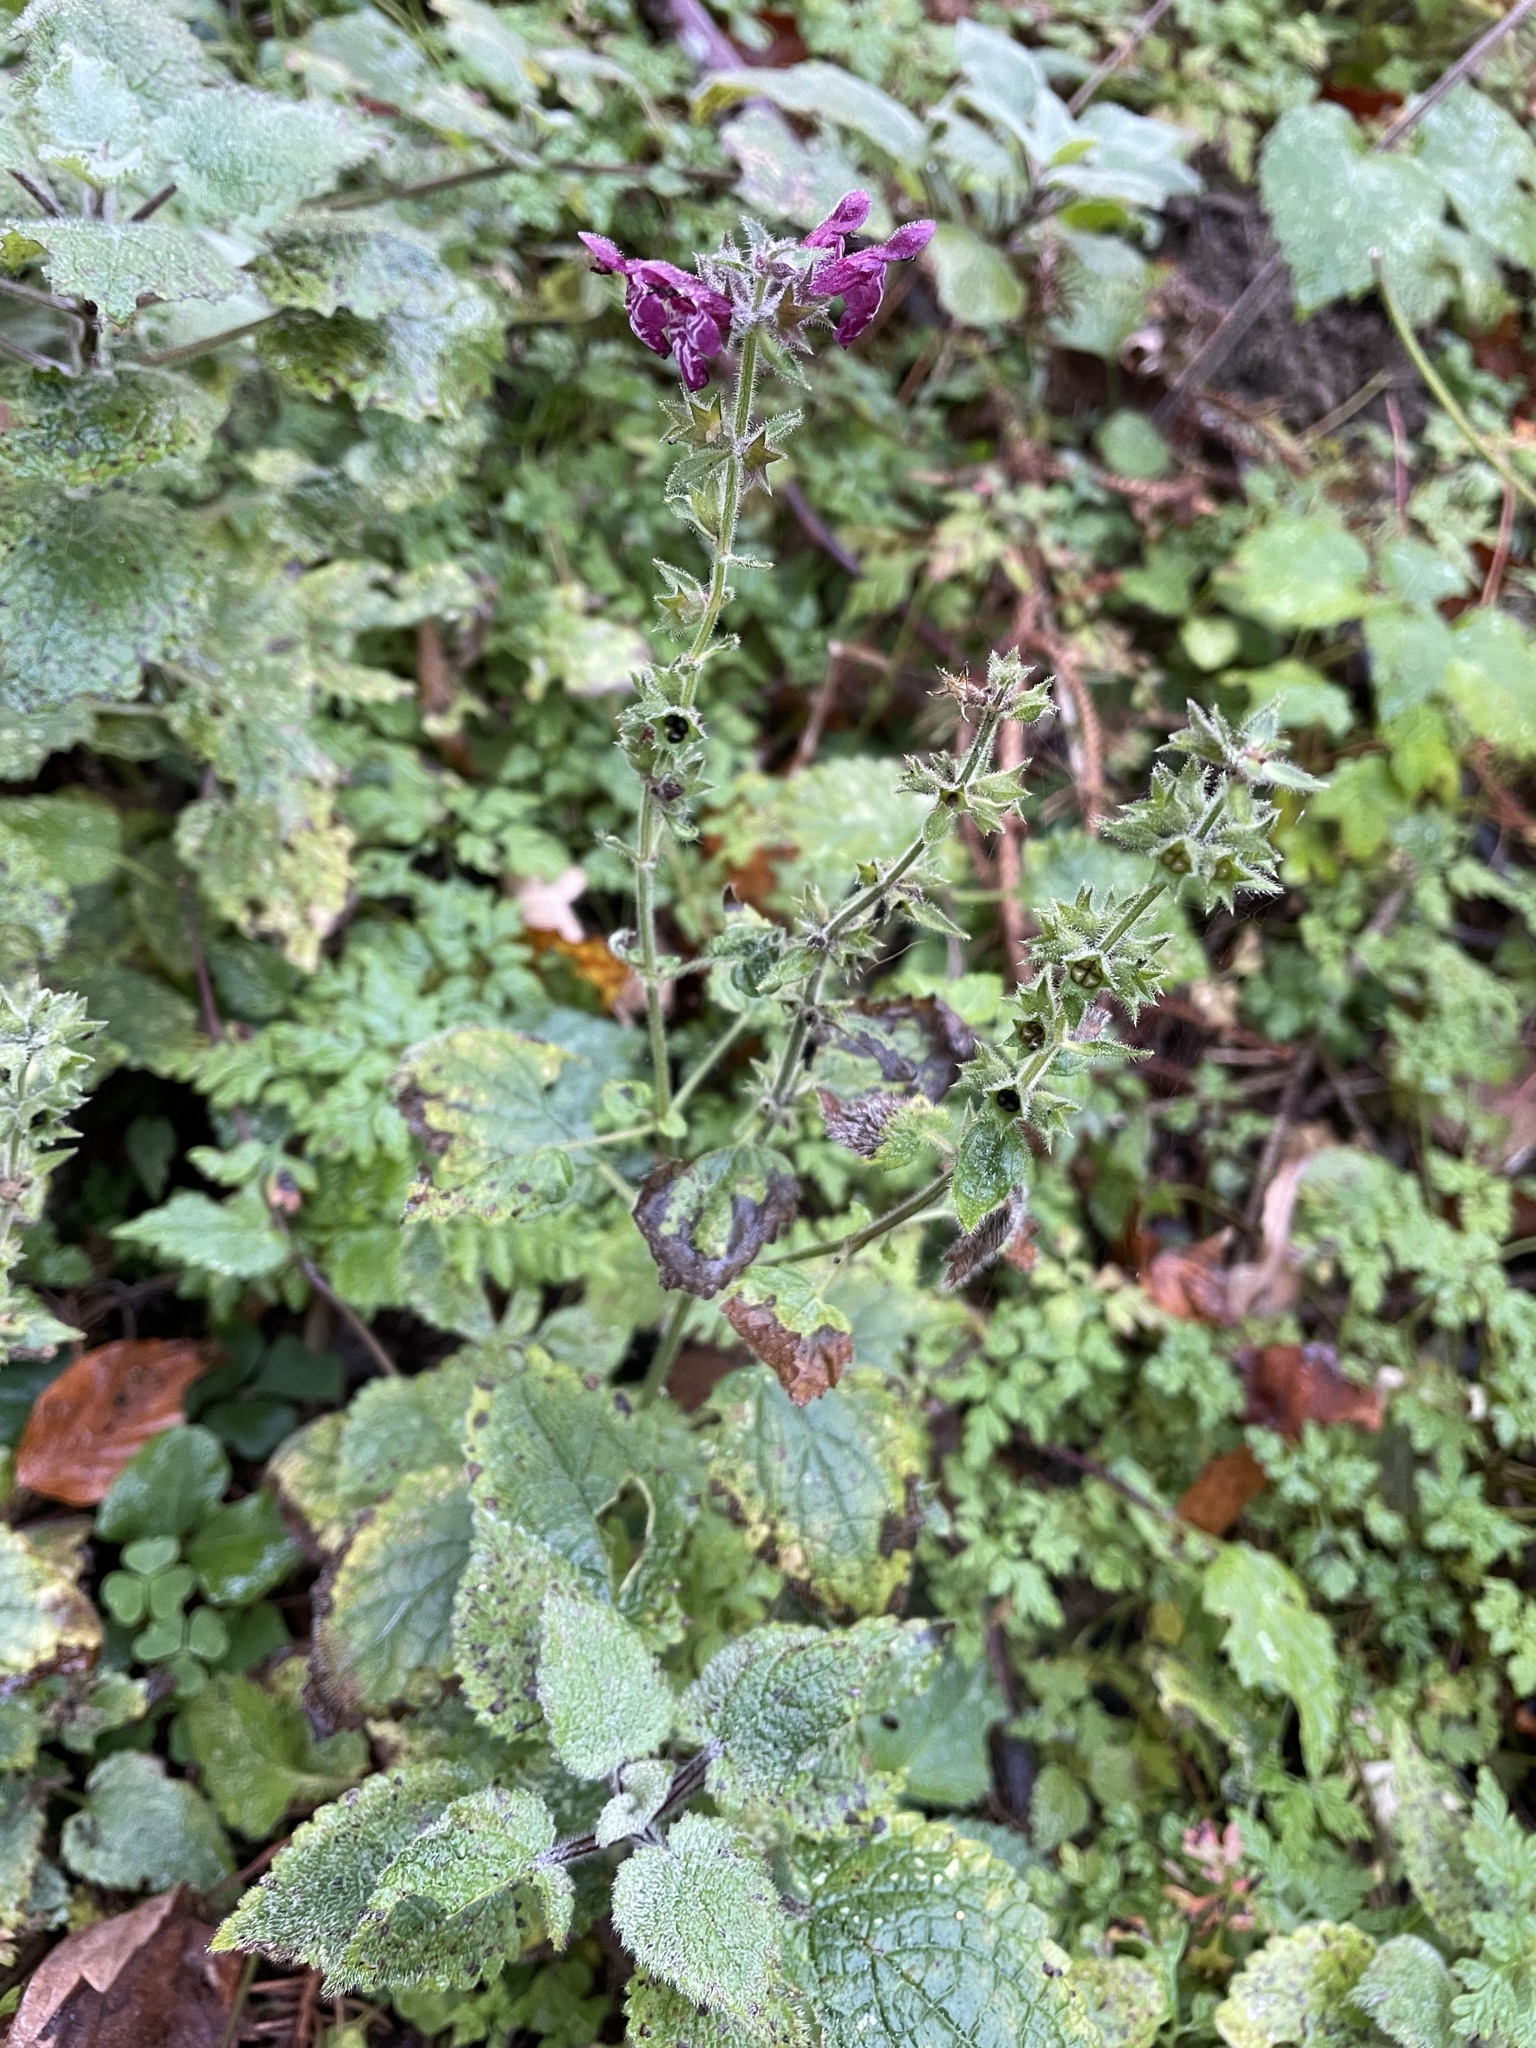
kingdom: Plantae
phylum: Tracheophyta
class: Magnoliopsida
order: Lamiales
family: Lamiaceae
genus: Stachys
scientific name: Stachys sylvatica
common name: Hedge woundwort
